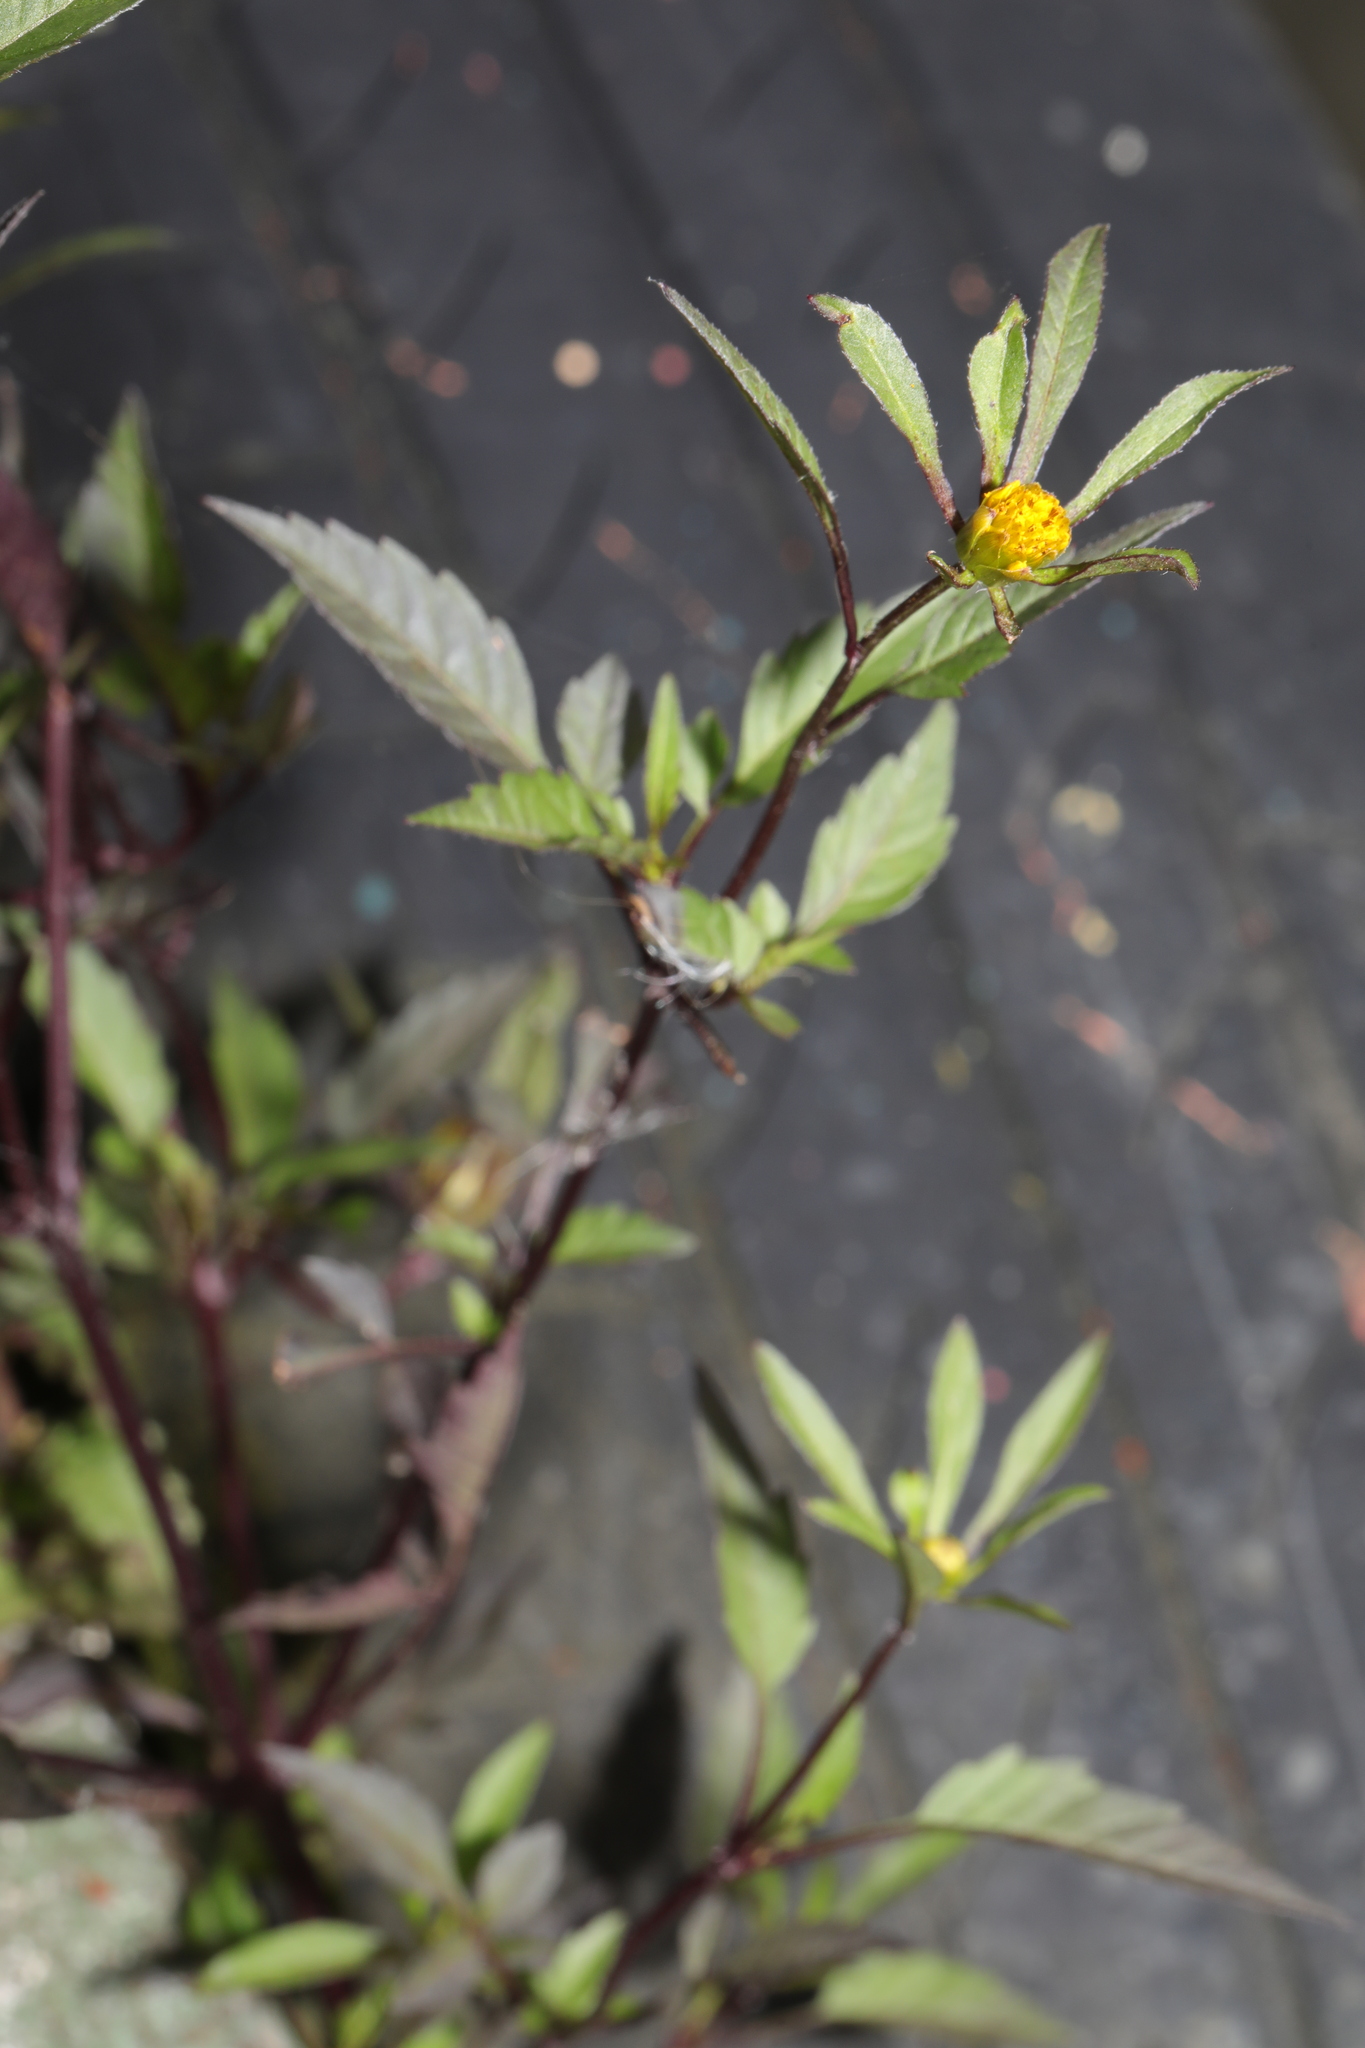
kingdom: Plantae
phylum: Tracheophyta
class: Magnoliopsida
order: Asterales
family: Asteraceae
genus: Bidens
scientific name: Bidens tripartita
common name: Trifid bur-marigold
